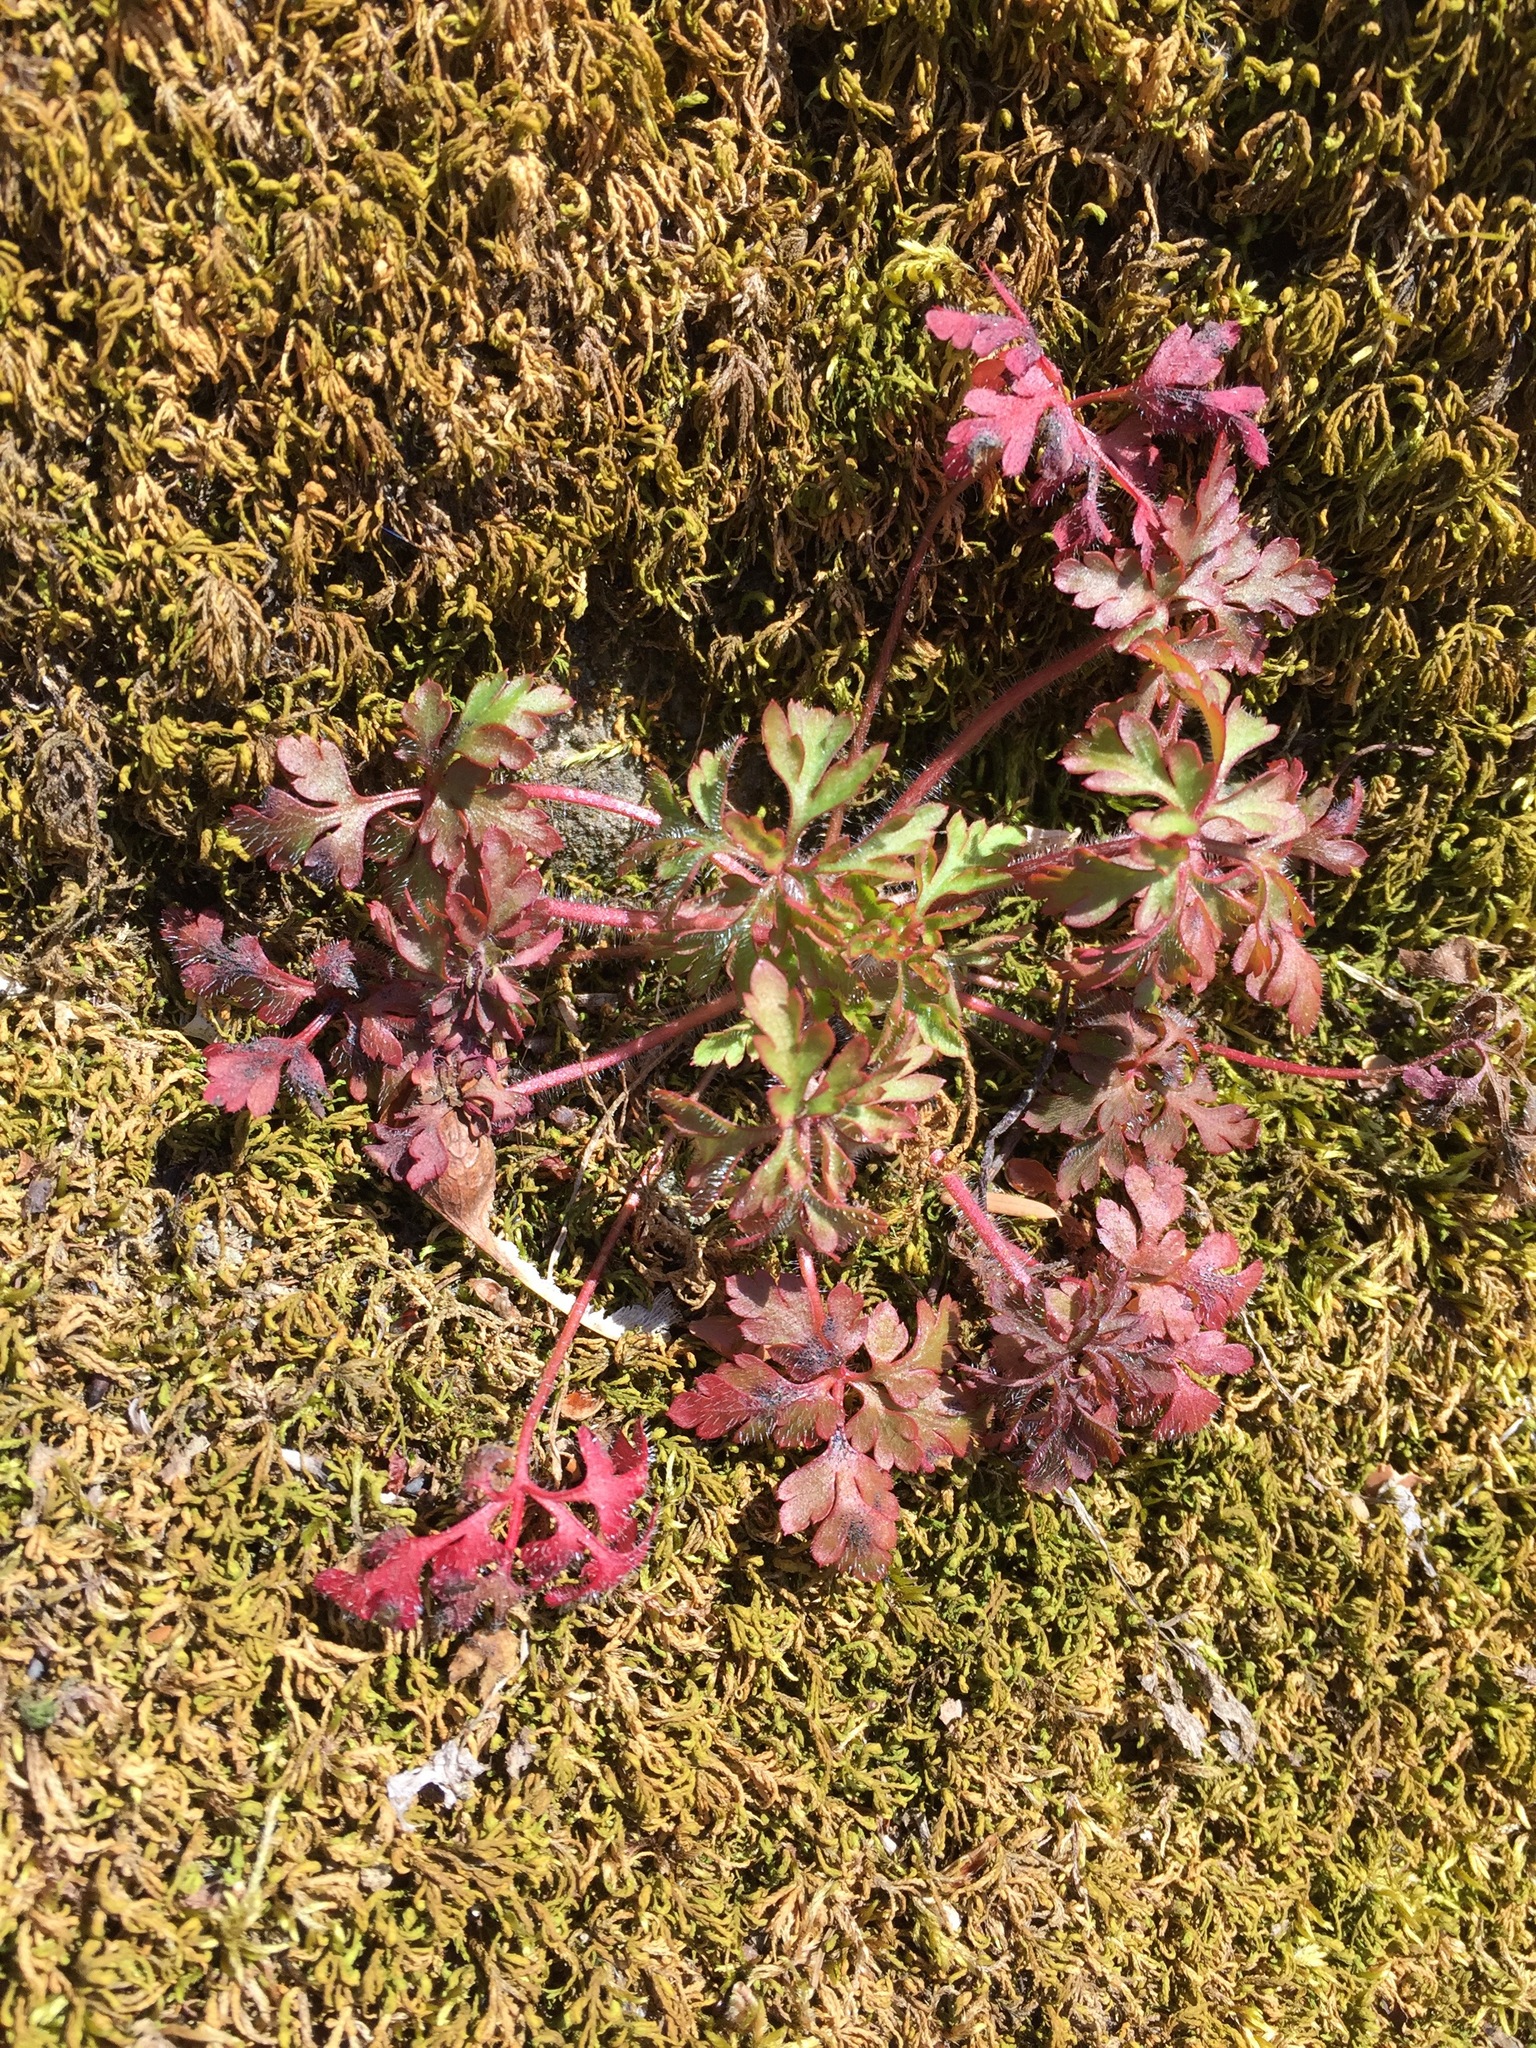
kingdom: Plantae
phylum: Tracheophyta
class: Magnoliopsida
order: Geraniales
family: Geraniaceae
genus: Geranium
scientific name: Geranium robertianum
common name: Herb-robert
